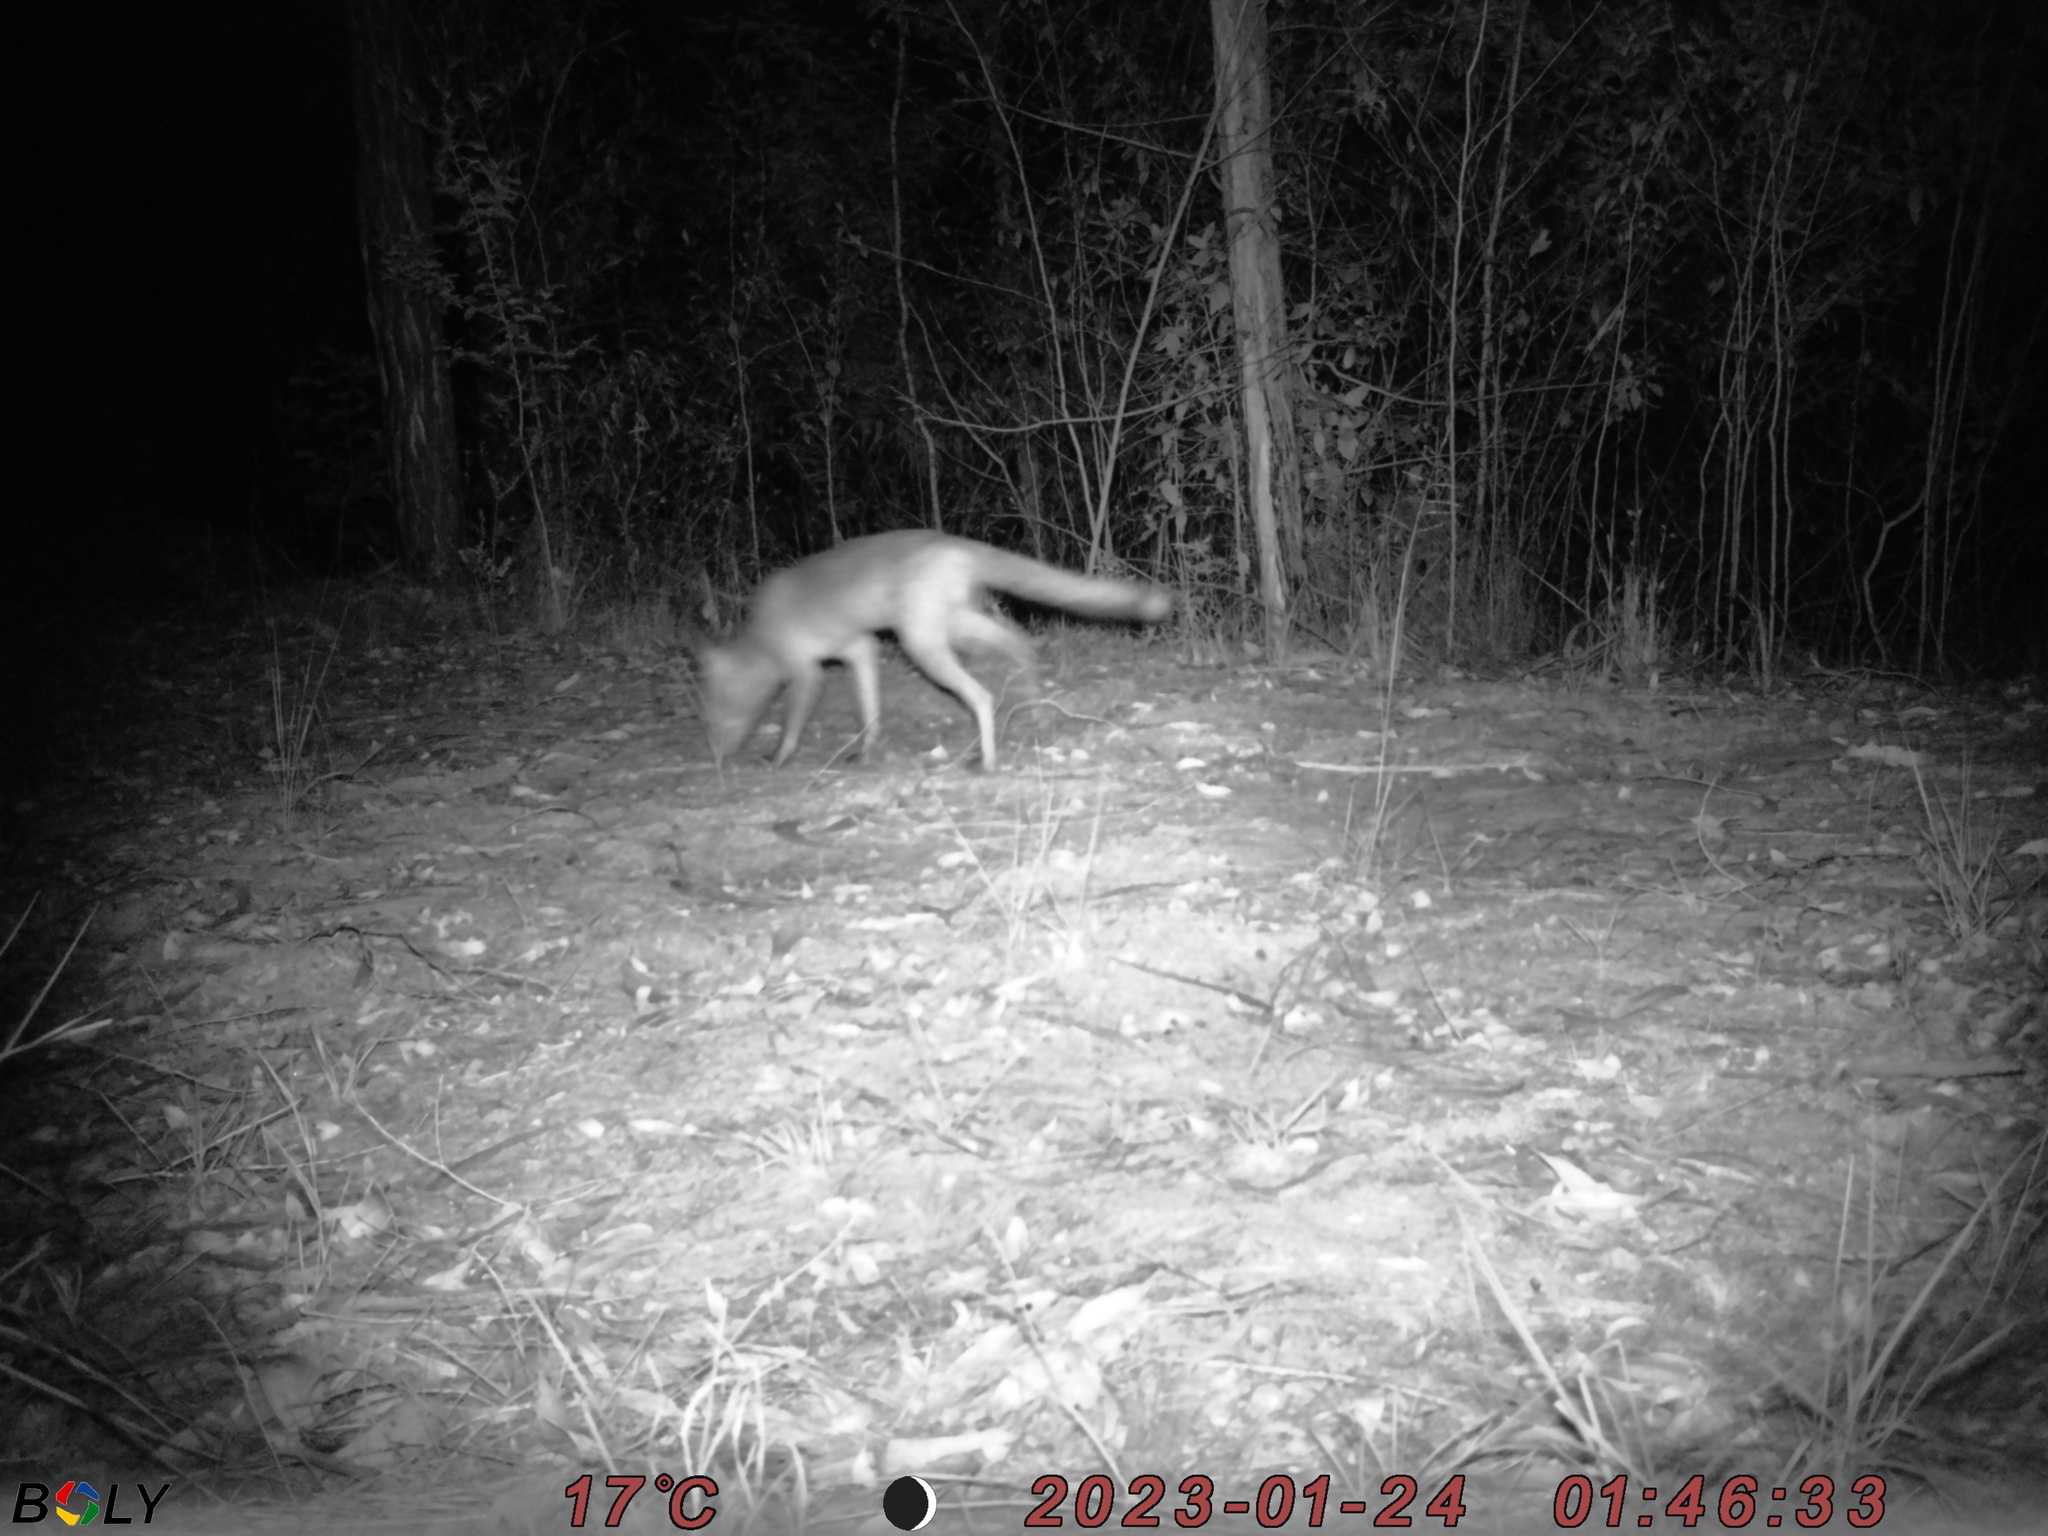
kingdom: Animalia
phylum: Chordata
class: Mammalia
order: Carnivora
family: Canidae
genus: Vulpes
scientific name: Vulpes vulpes
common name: Red fox
